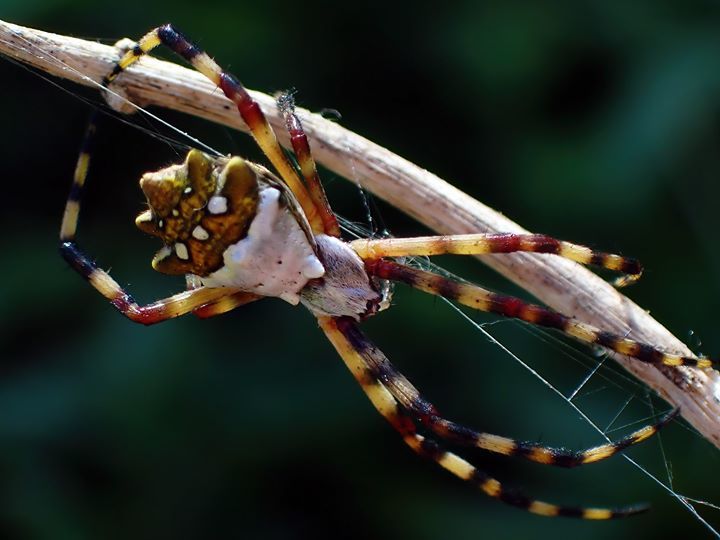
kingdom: Animalia
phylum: Arthropoda
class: Arachnida
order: Araneae
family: Araneidae
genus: Argiope
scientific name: Argiope argentata
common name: Orb weavers
